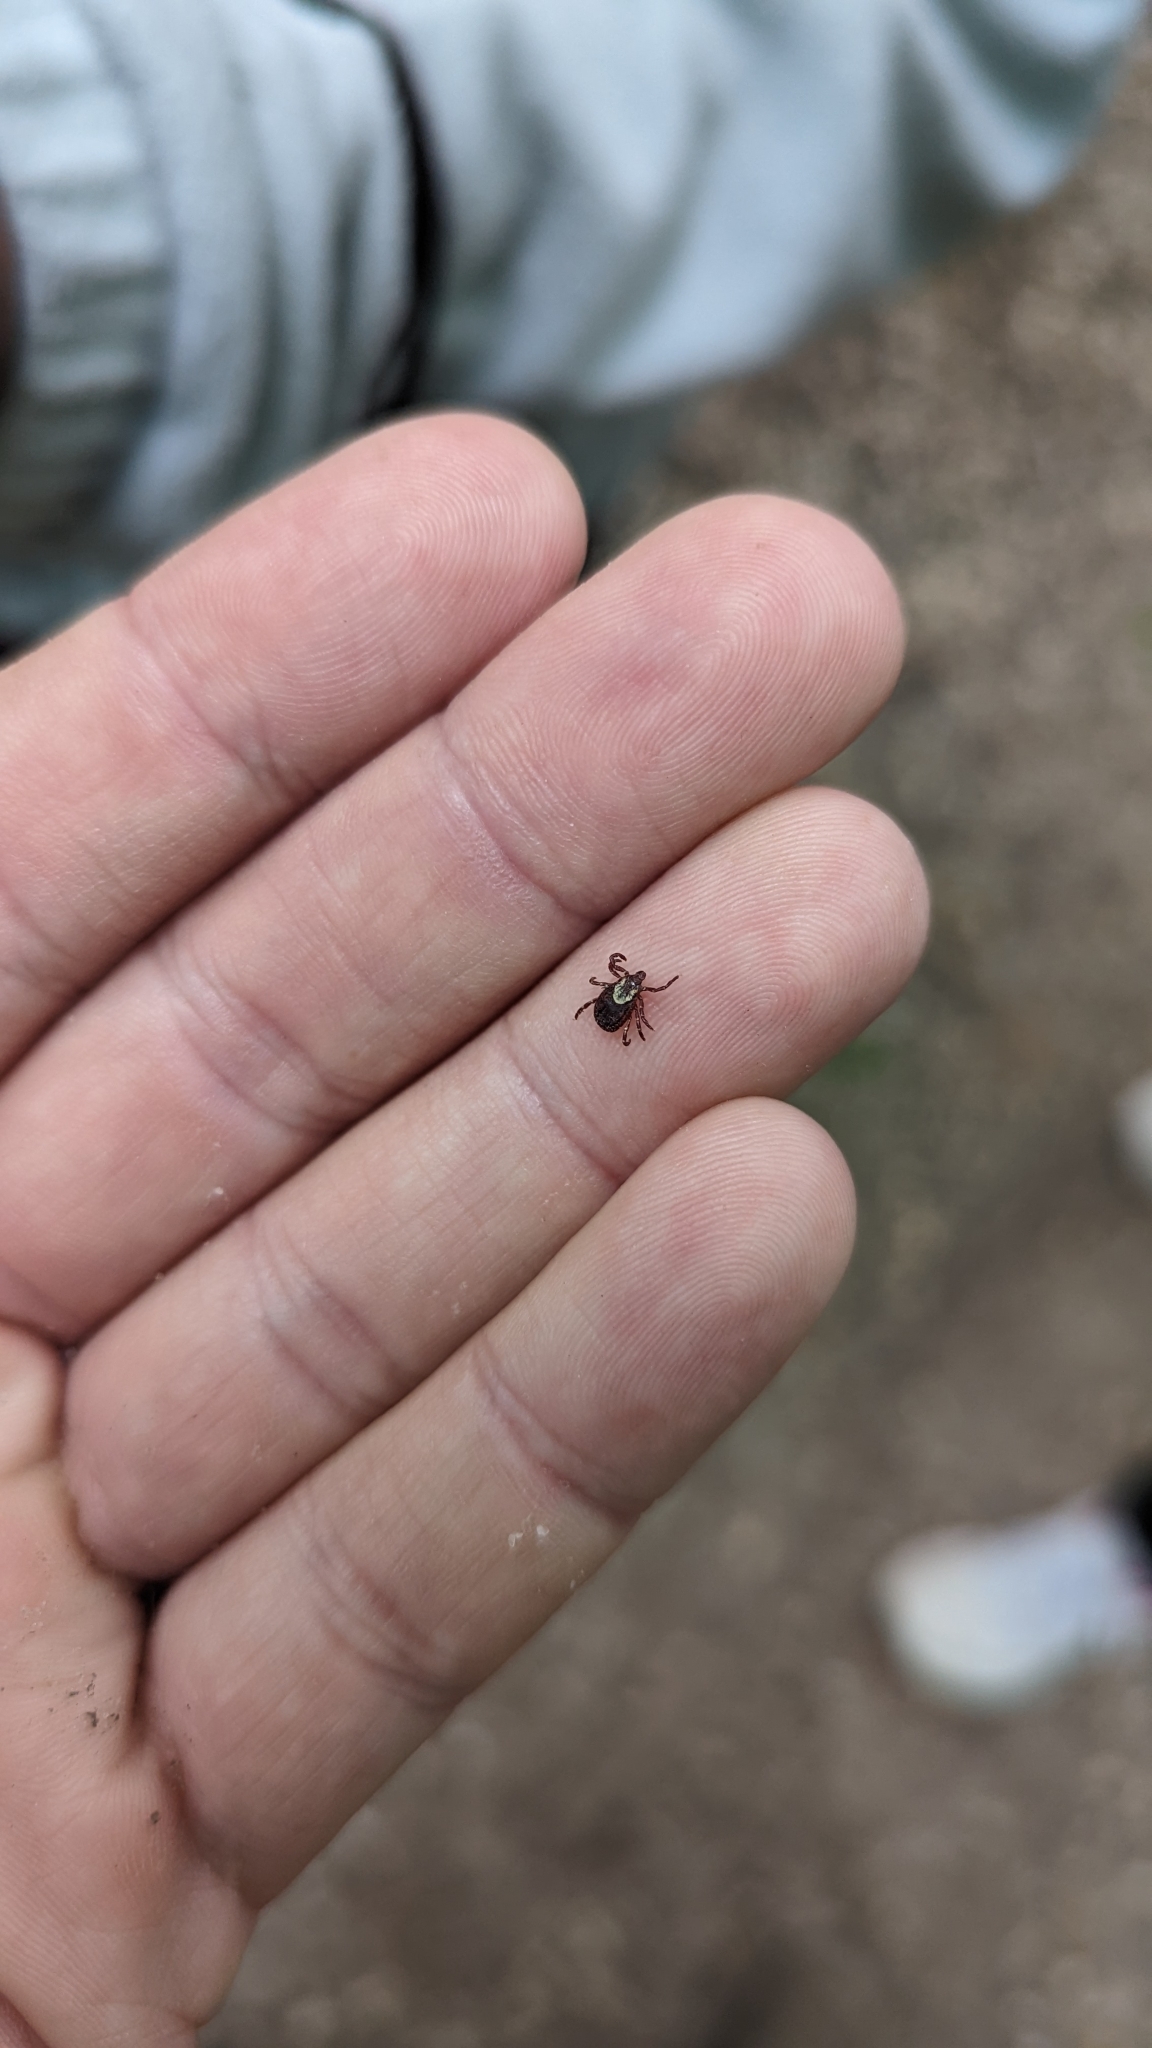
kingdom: Animalia
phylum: Arthropoda
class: Arachnida
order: Ixodida
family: Ixodidae
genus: Dermacentor
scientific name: Dermacentor variabilis
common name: American dog tick
